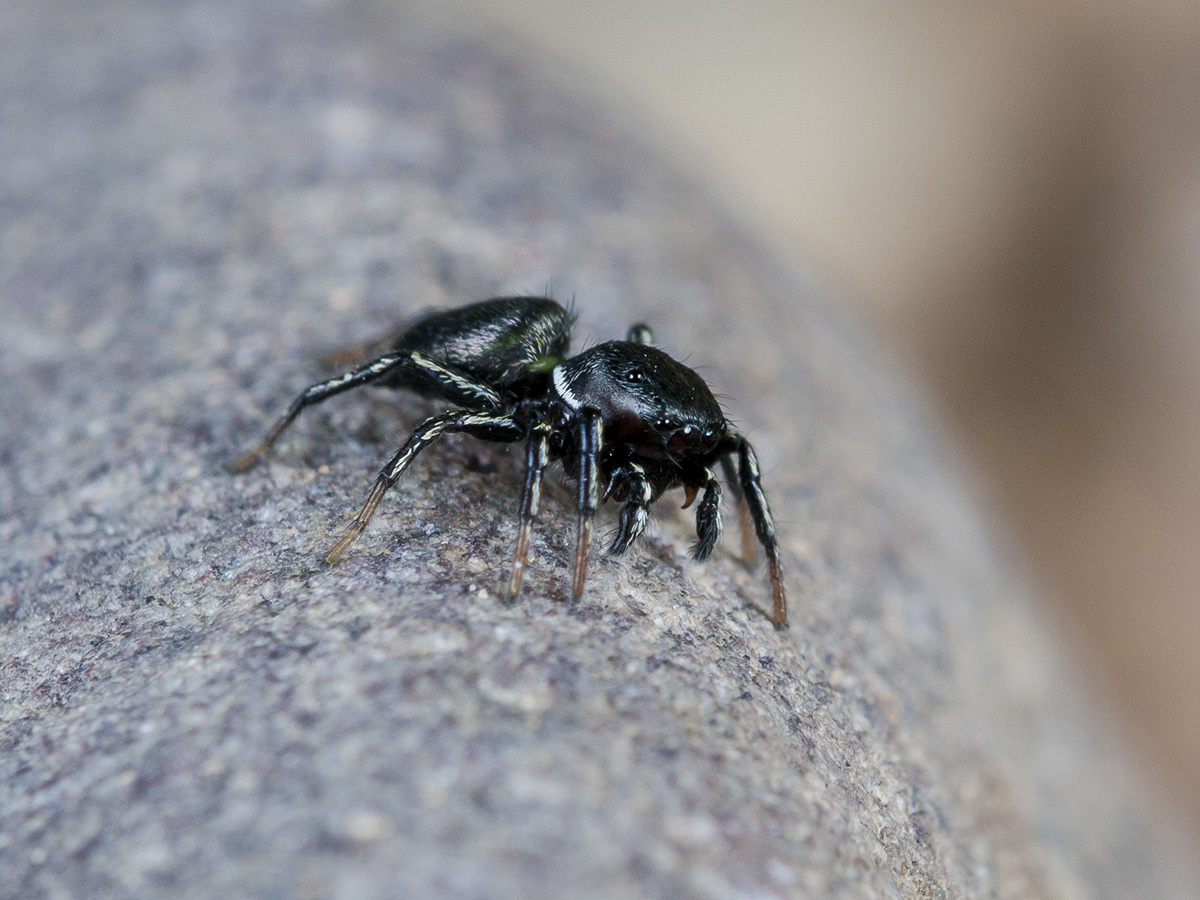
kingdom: Animalia
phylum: Arthropoda
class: Arachnida
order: Araneae
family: Salticidae
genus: Heliophanus
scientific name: Heliophanus potanini
